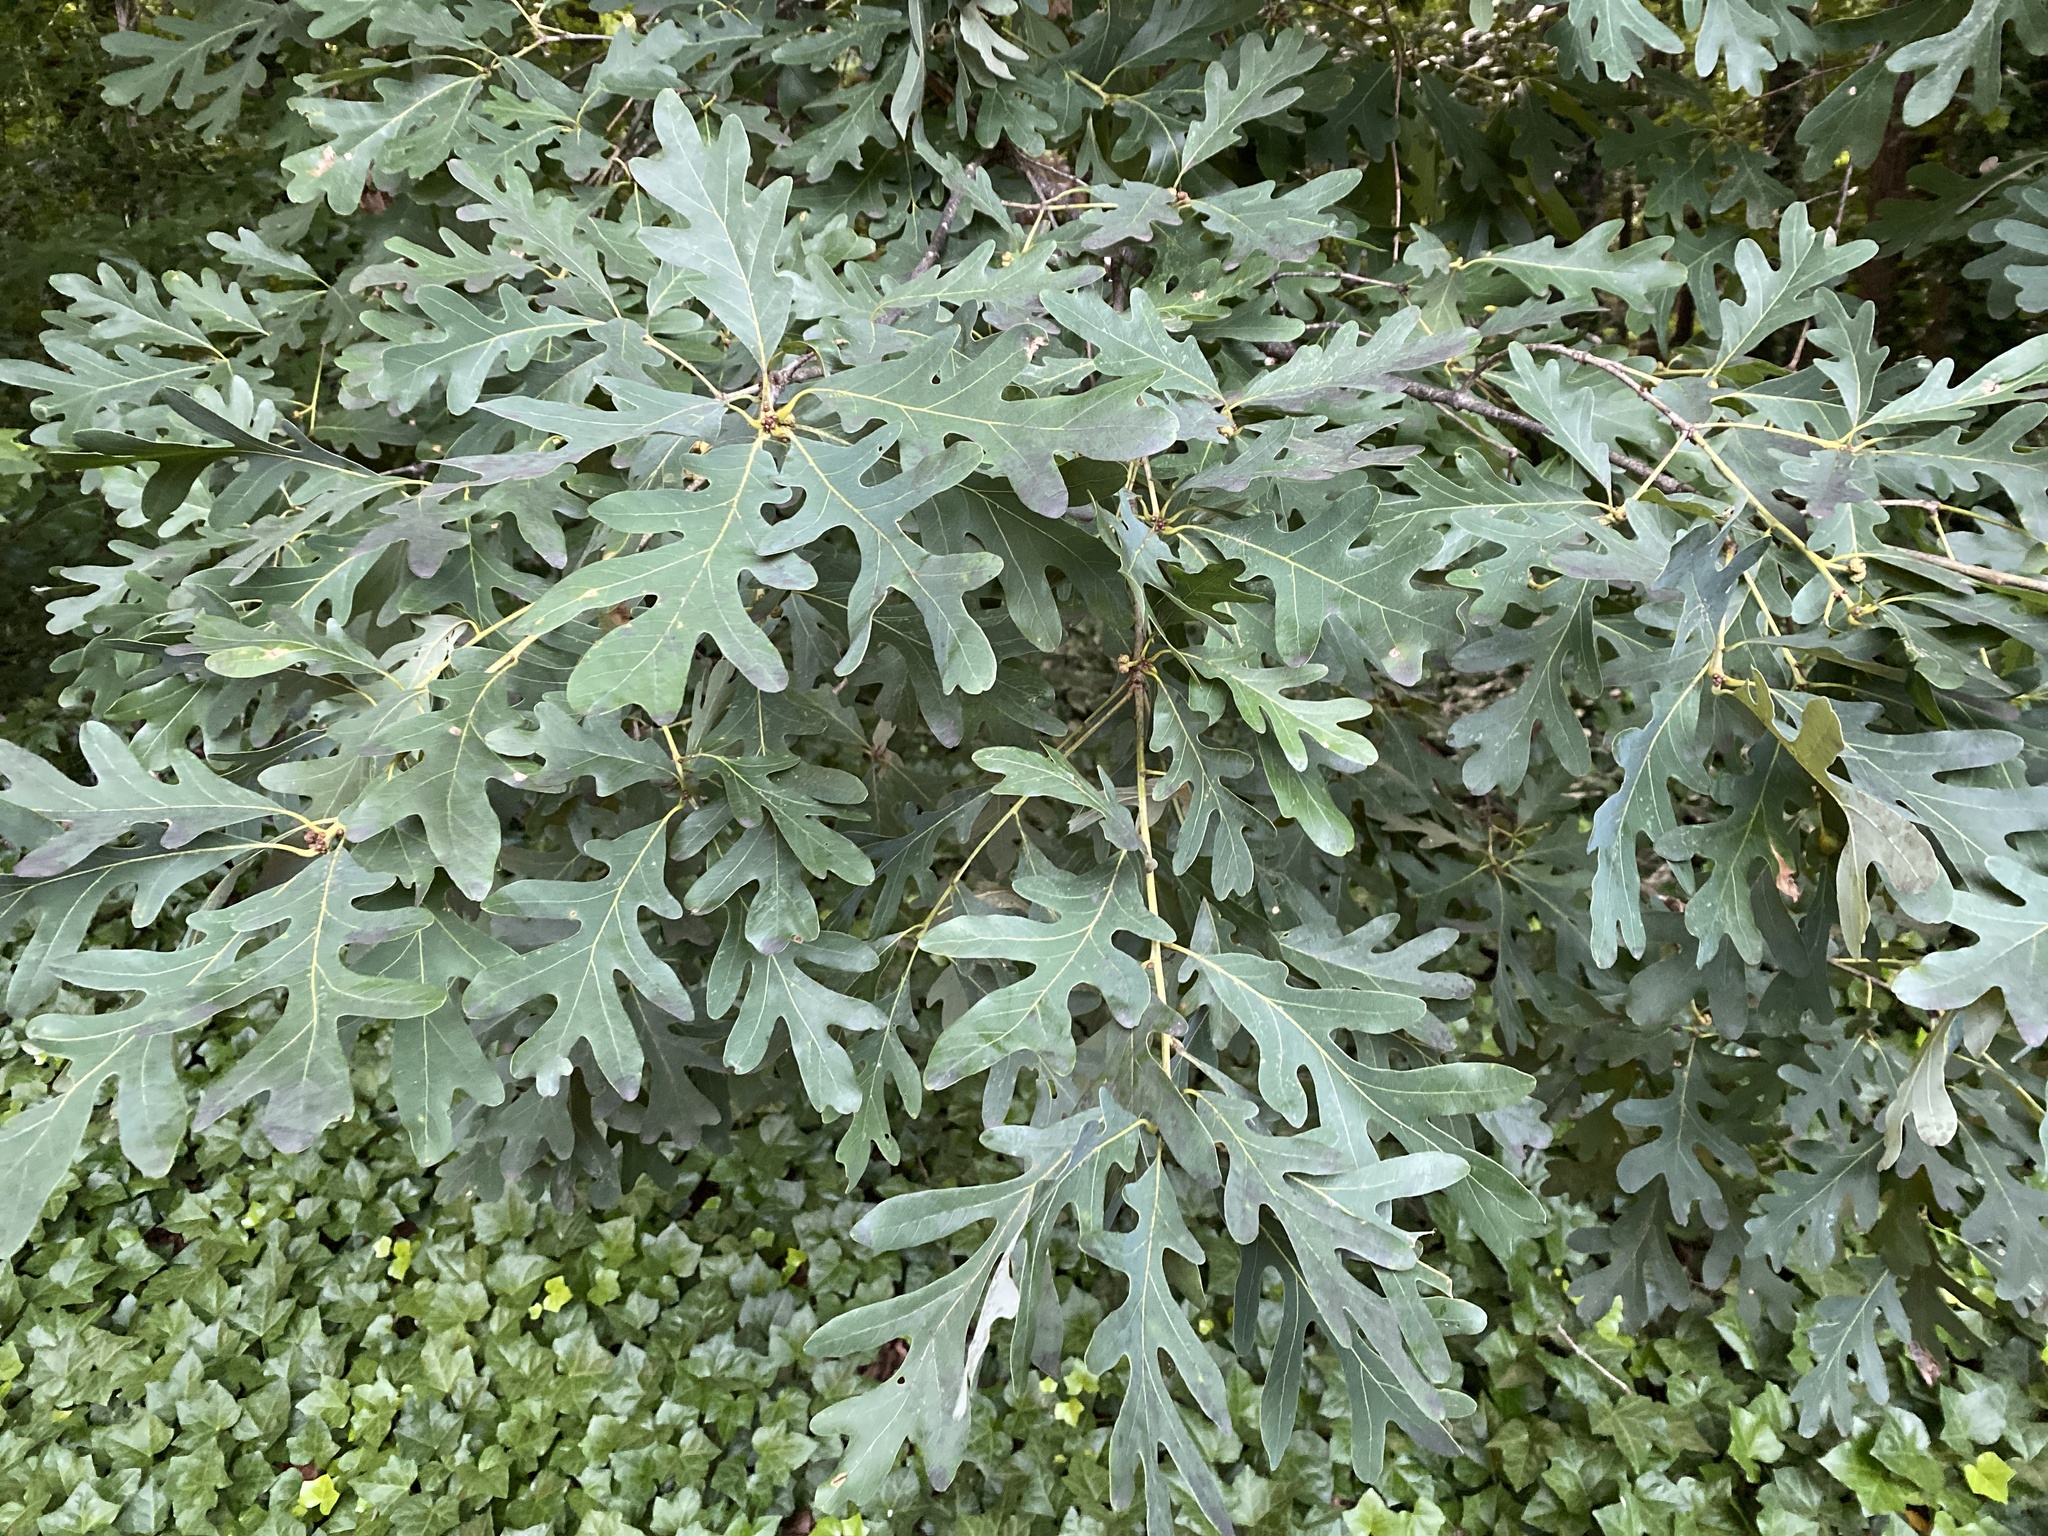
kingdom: Plantae
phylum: Tracheophyta
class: Magnoliopsida
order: Fagales
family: Fagaceae
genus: Quercus
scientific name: Quercus alba
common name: White oak
